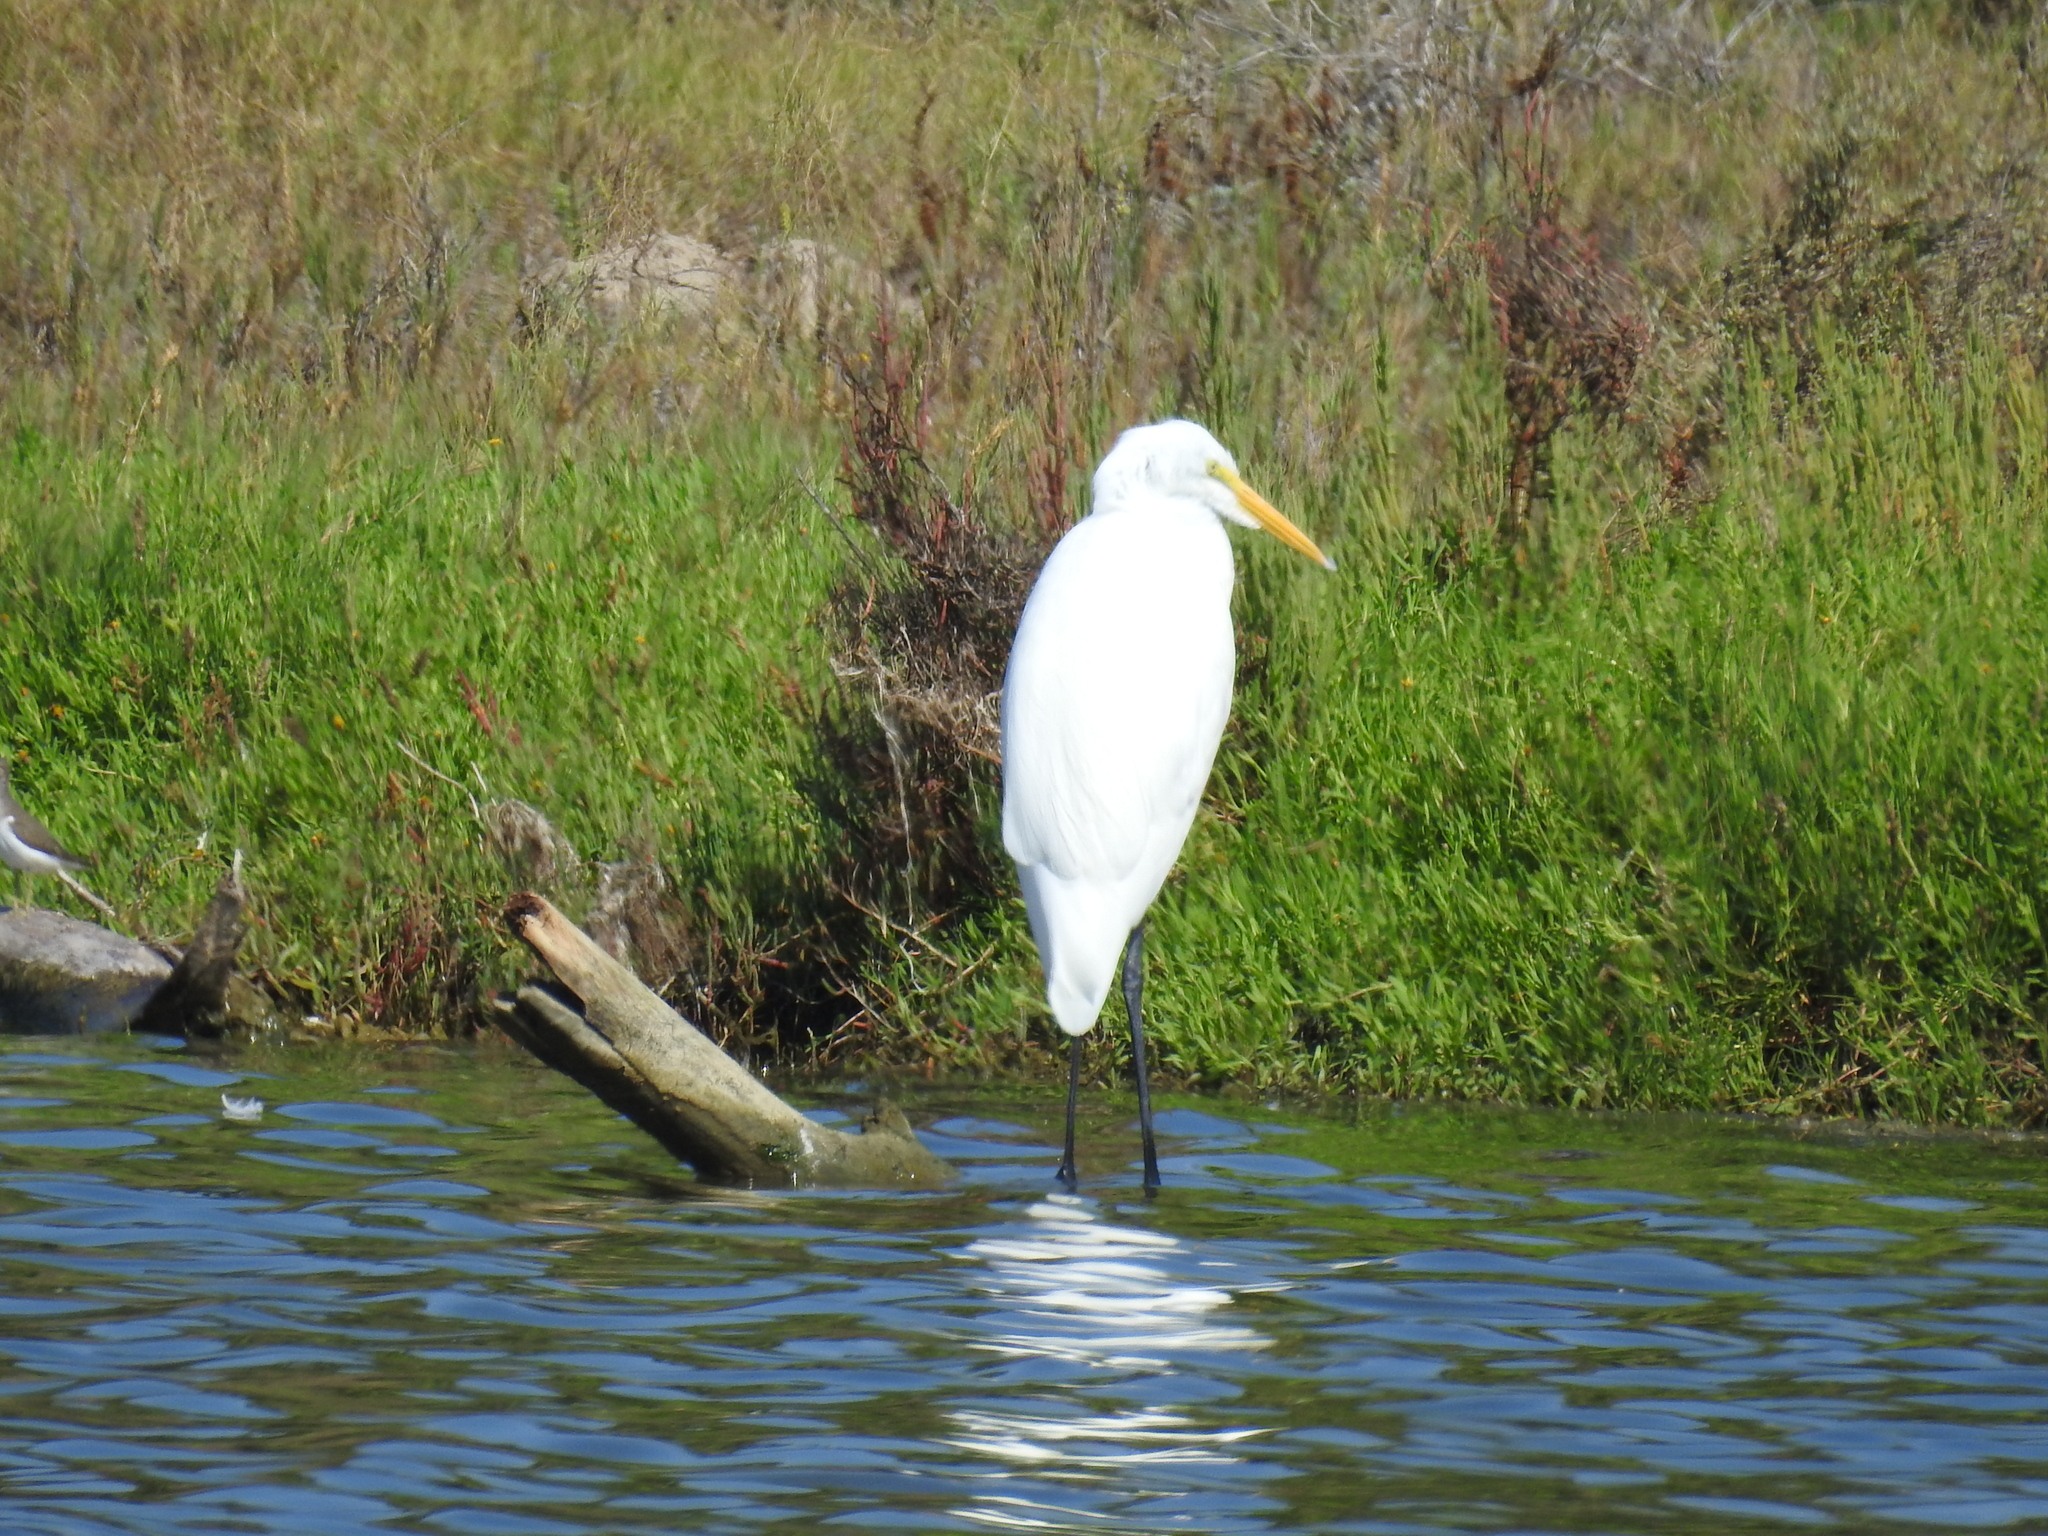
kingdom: Animalia
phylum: Chordata
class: Aves
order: Pelecaniformes
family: Ardeidae
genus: Ardea
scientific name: Ardea alba
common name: Great egret
